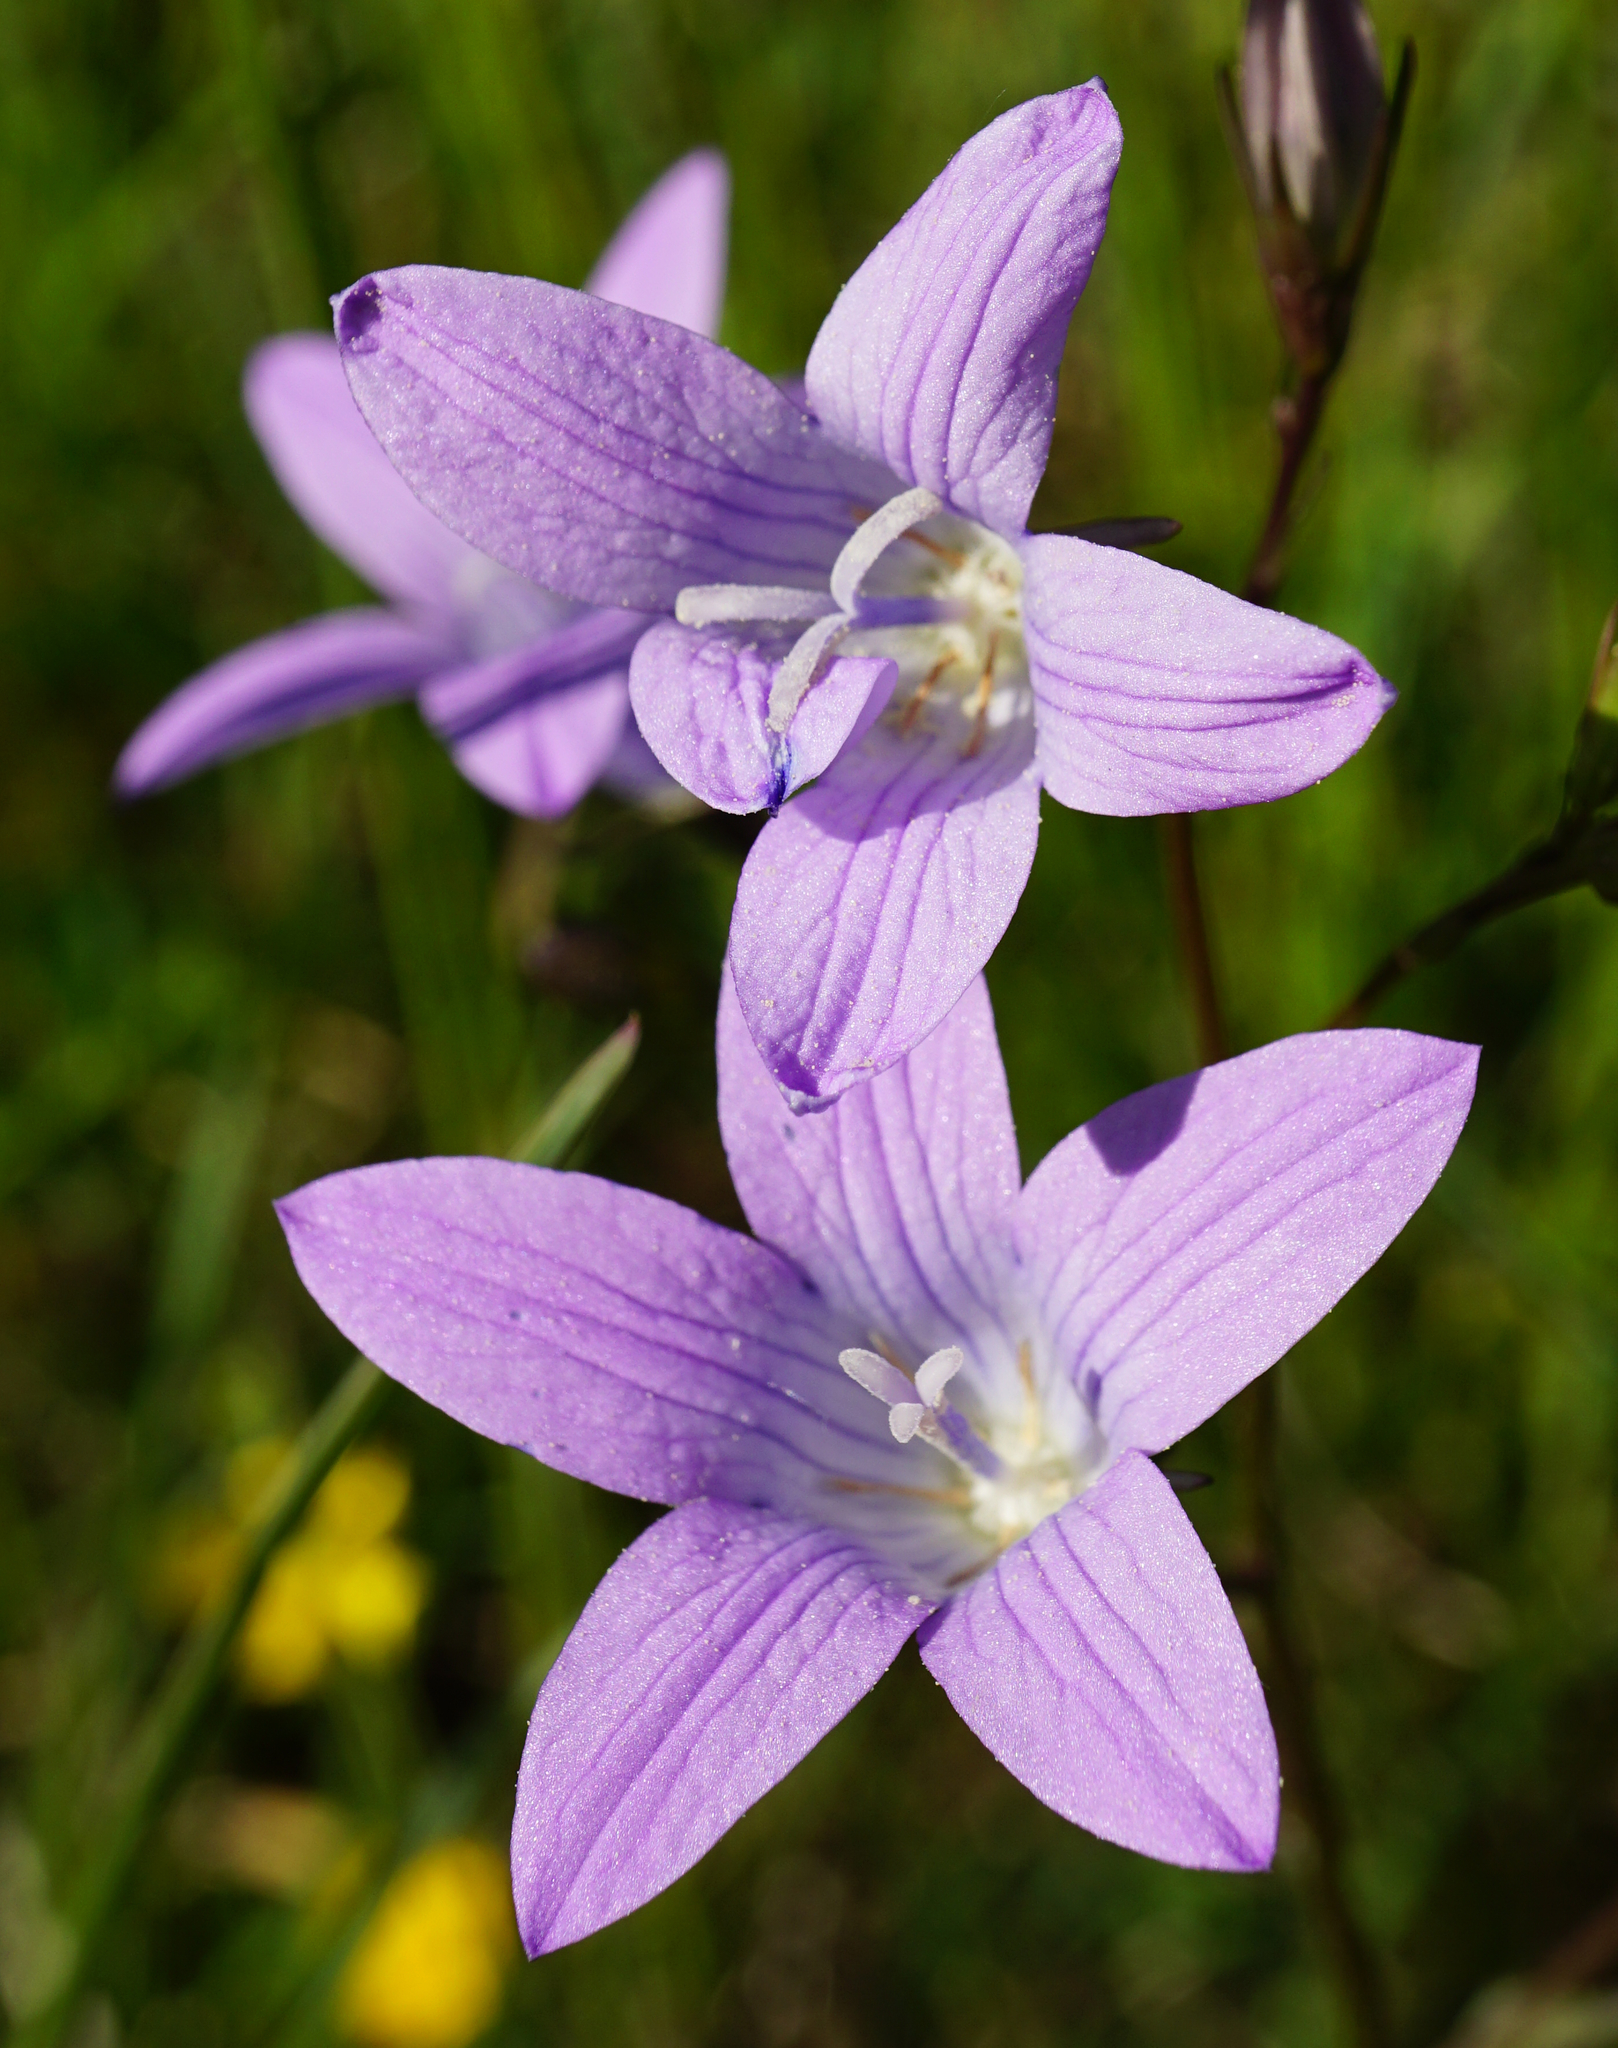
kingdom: Plantae
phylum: Tracheophyta
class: Magnoliopsida
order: Asterales
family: Campanulaceae
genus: Campanula
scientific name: Campanula patula
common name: Spreading bellflower
